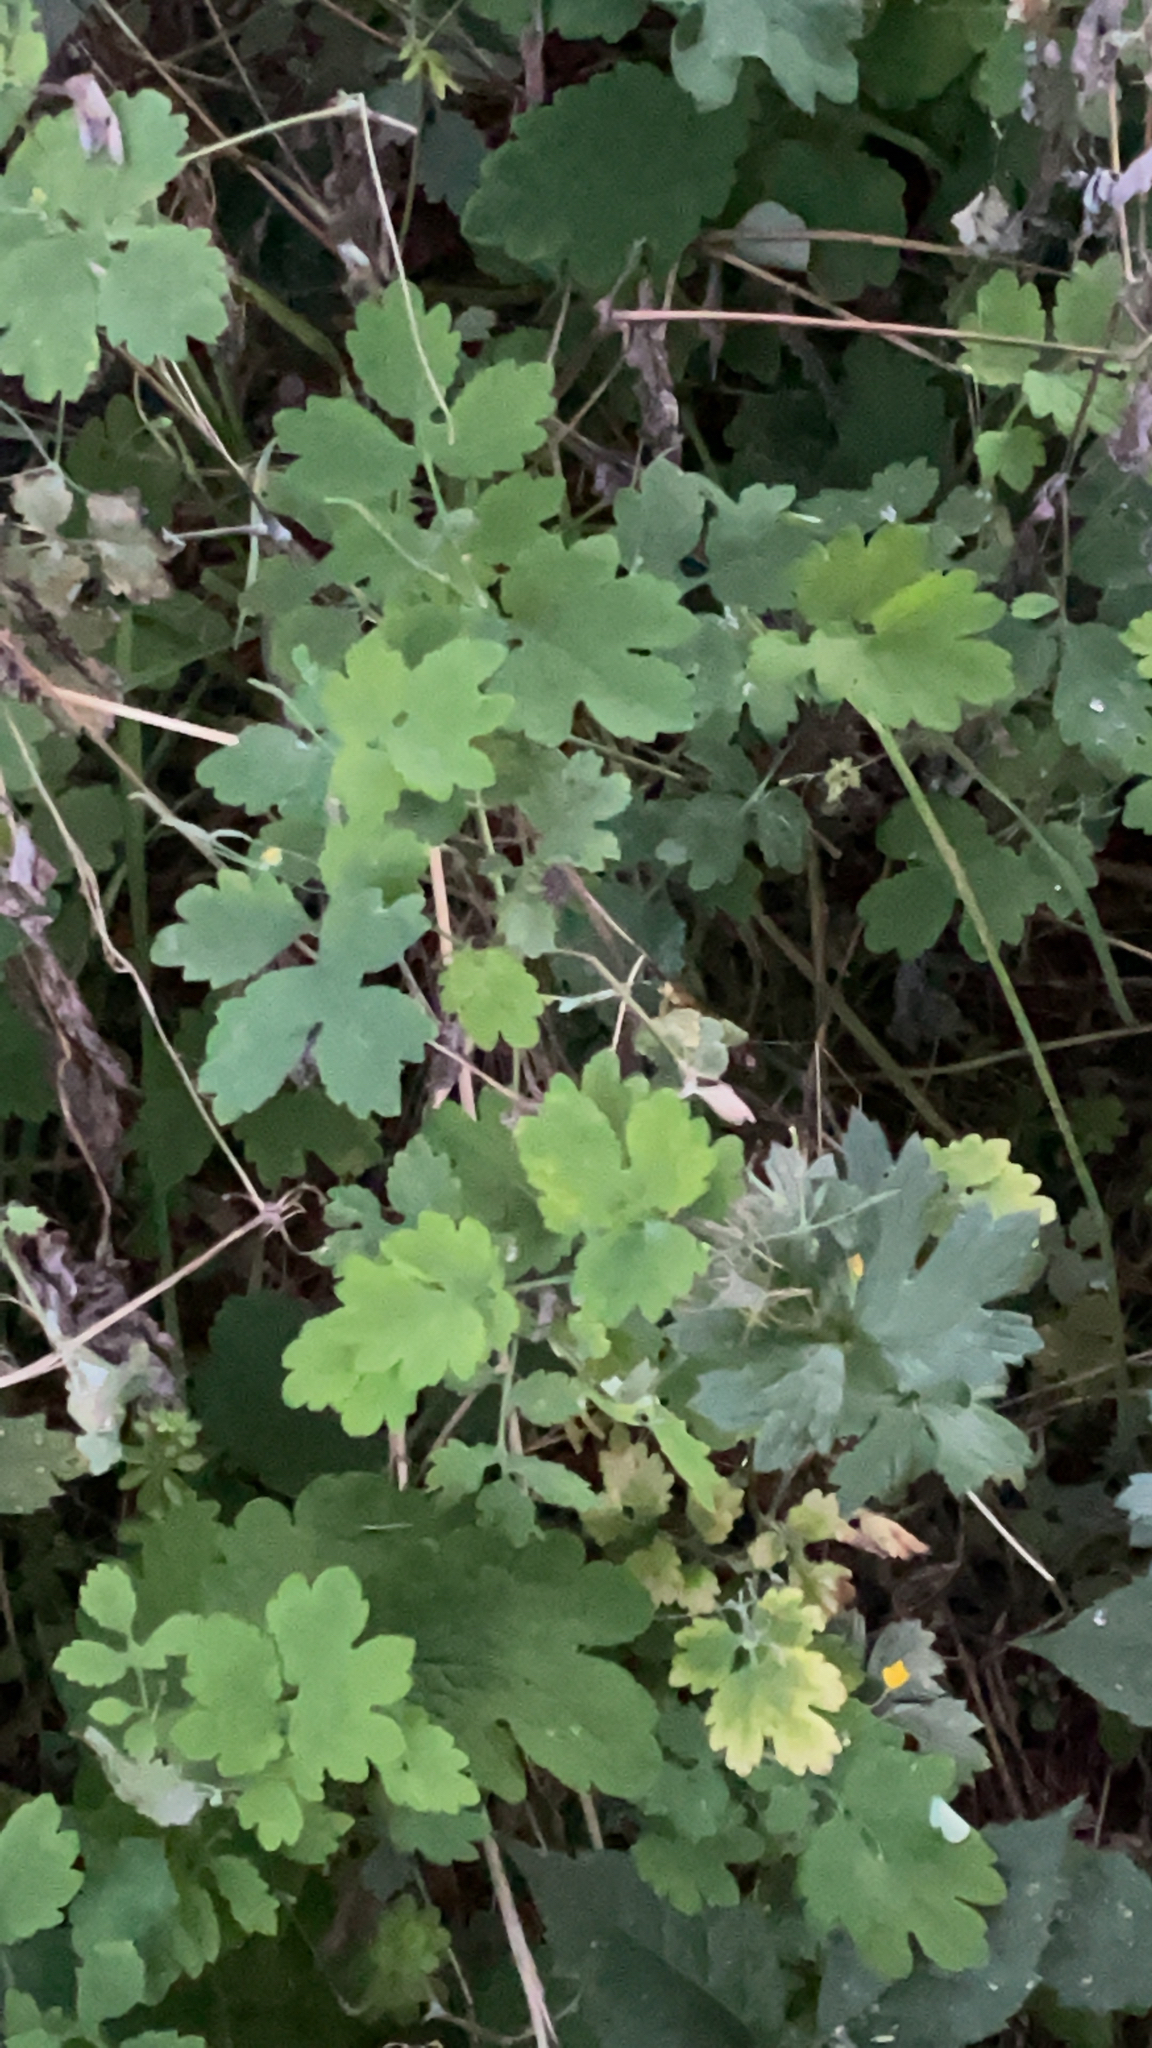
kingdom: Plantae
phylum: Tracheophyta
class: Magnoliopsida
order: Ranunculales
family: Papaveraceae
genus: Chelidonium
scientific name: Chelidonium majus
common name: Greater celandine
